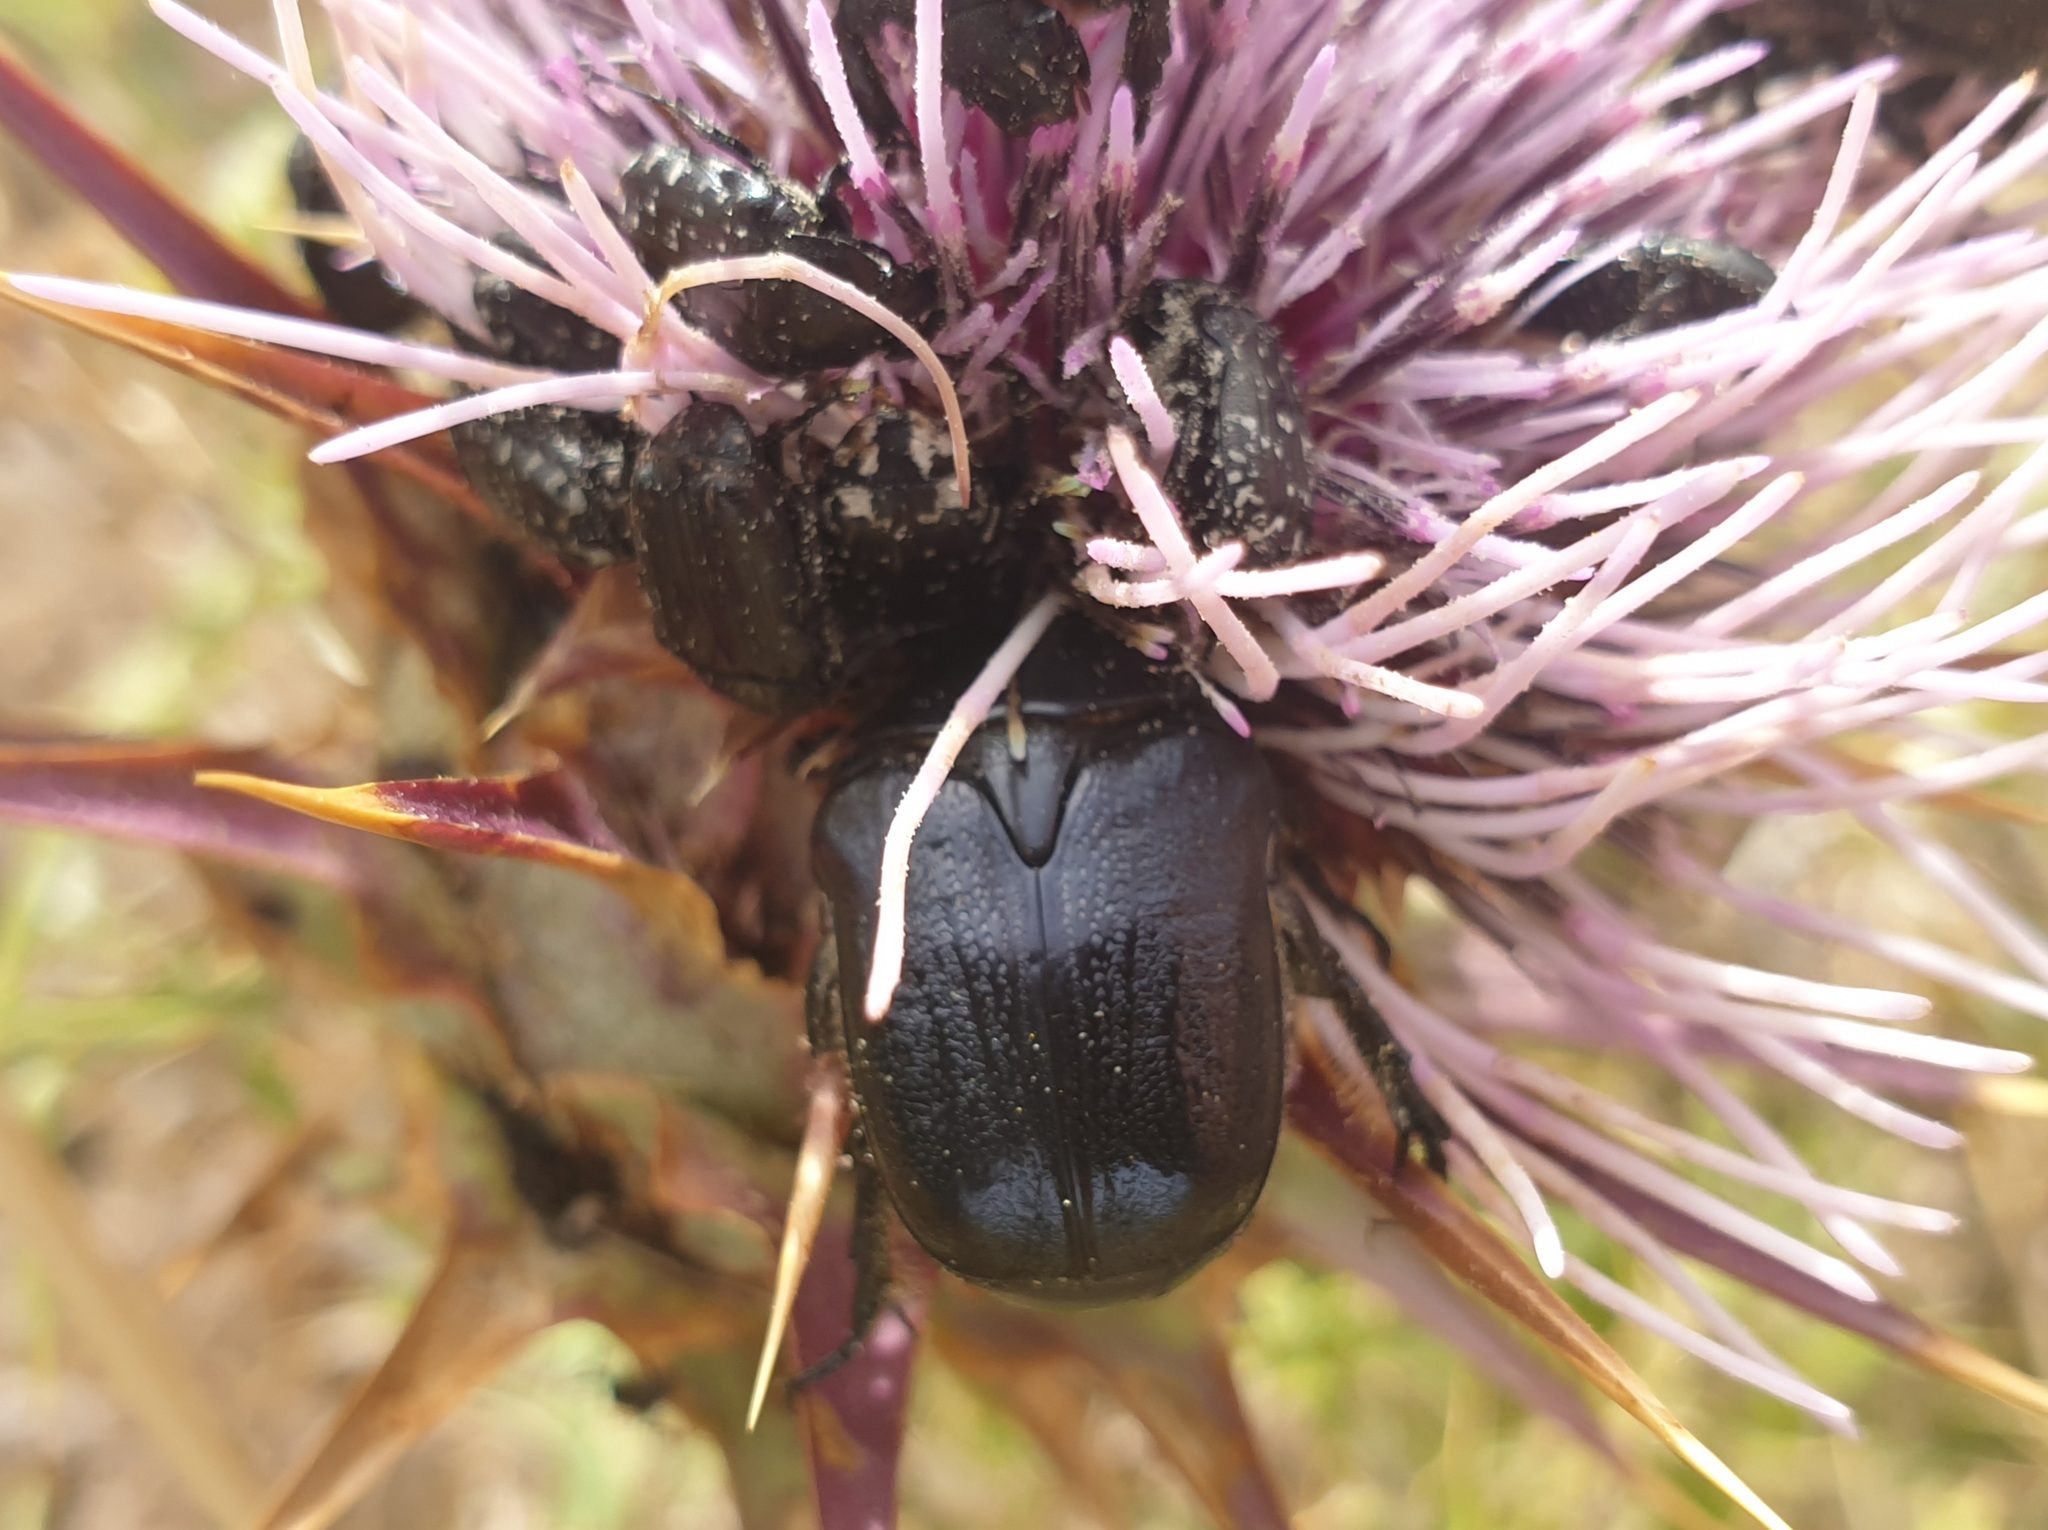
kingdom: Animalia
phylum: Arthropoda
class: Insecta
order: Coleoptera
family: Scarabaeidae
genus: Protaetia
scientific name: Protaetia sardea
